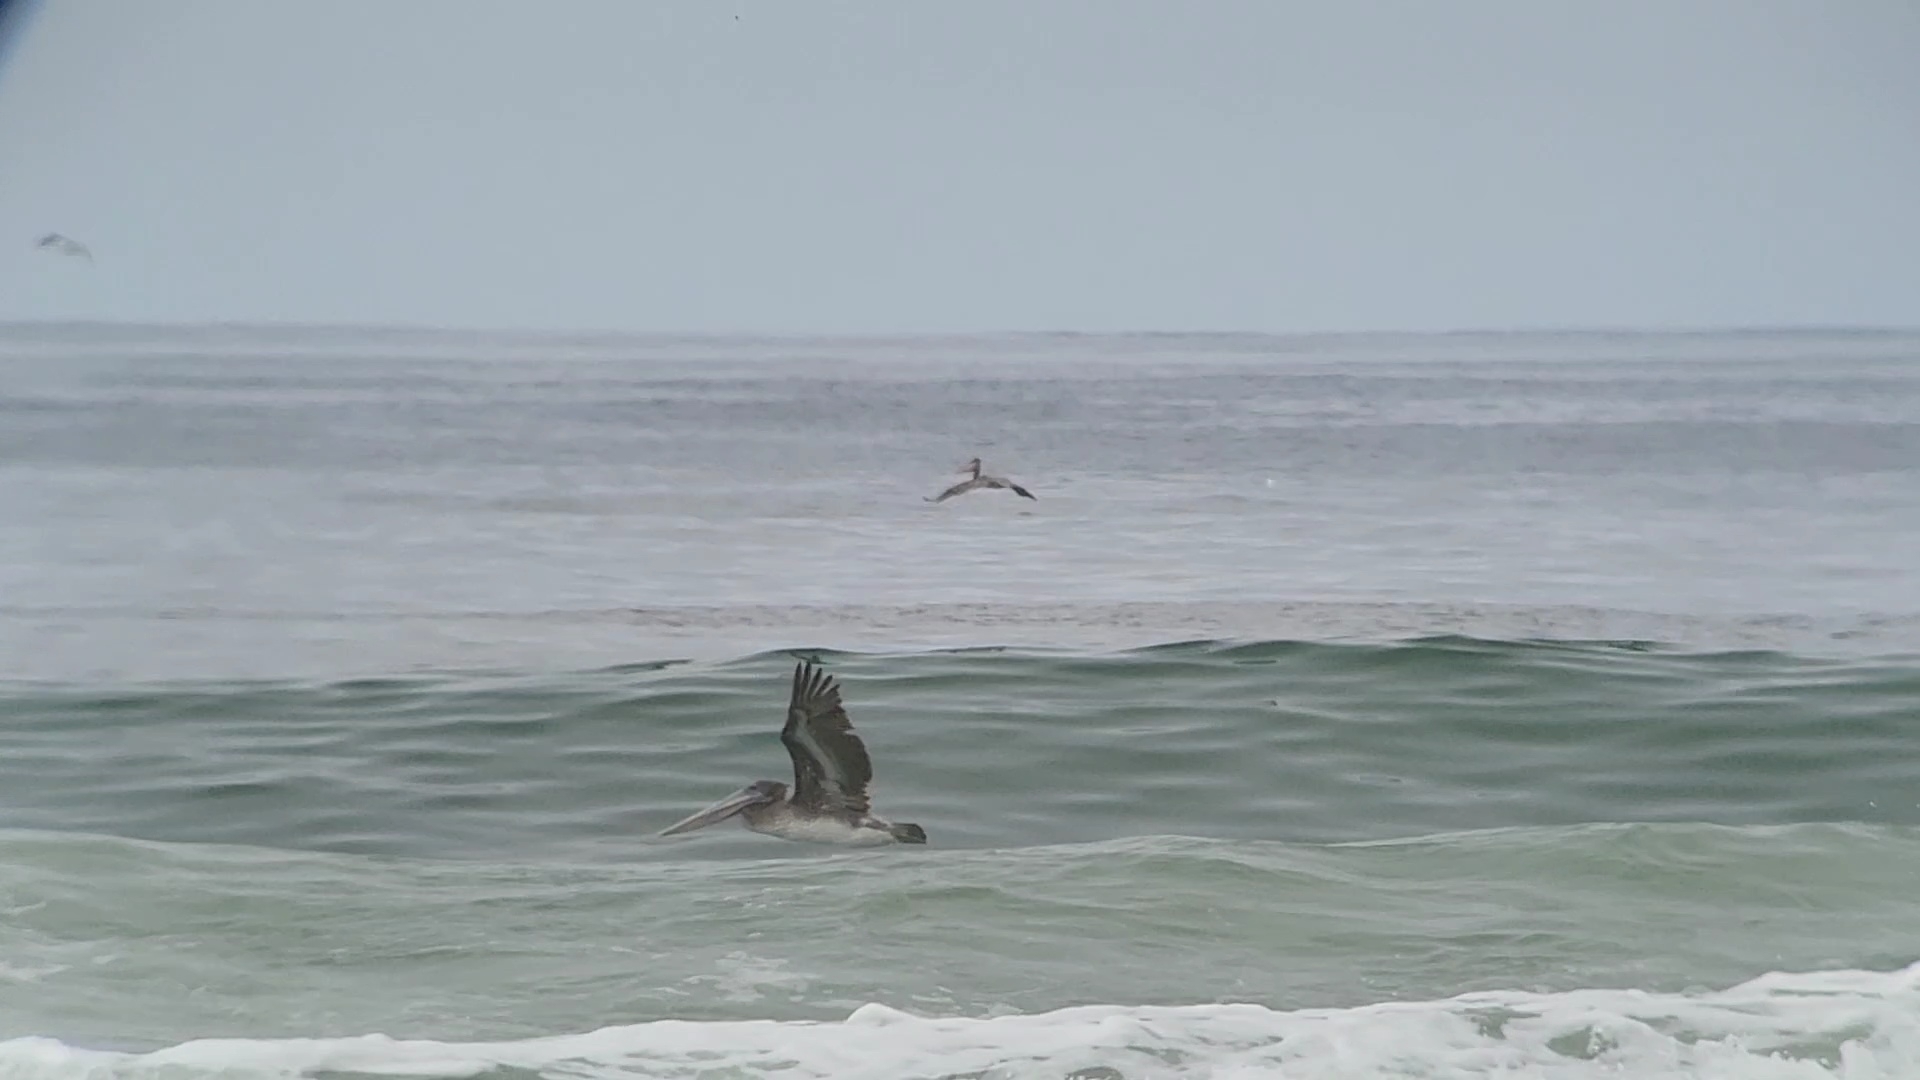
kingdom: Animalia
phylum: Chordata
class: Aves
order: Pelecaniformes
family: Pelecanidae
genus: Pelecanus
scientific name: Pelecanus occidentalis
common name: Brown pelican
